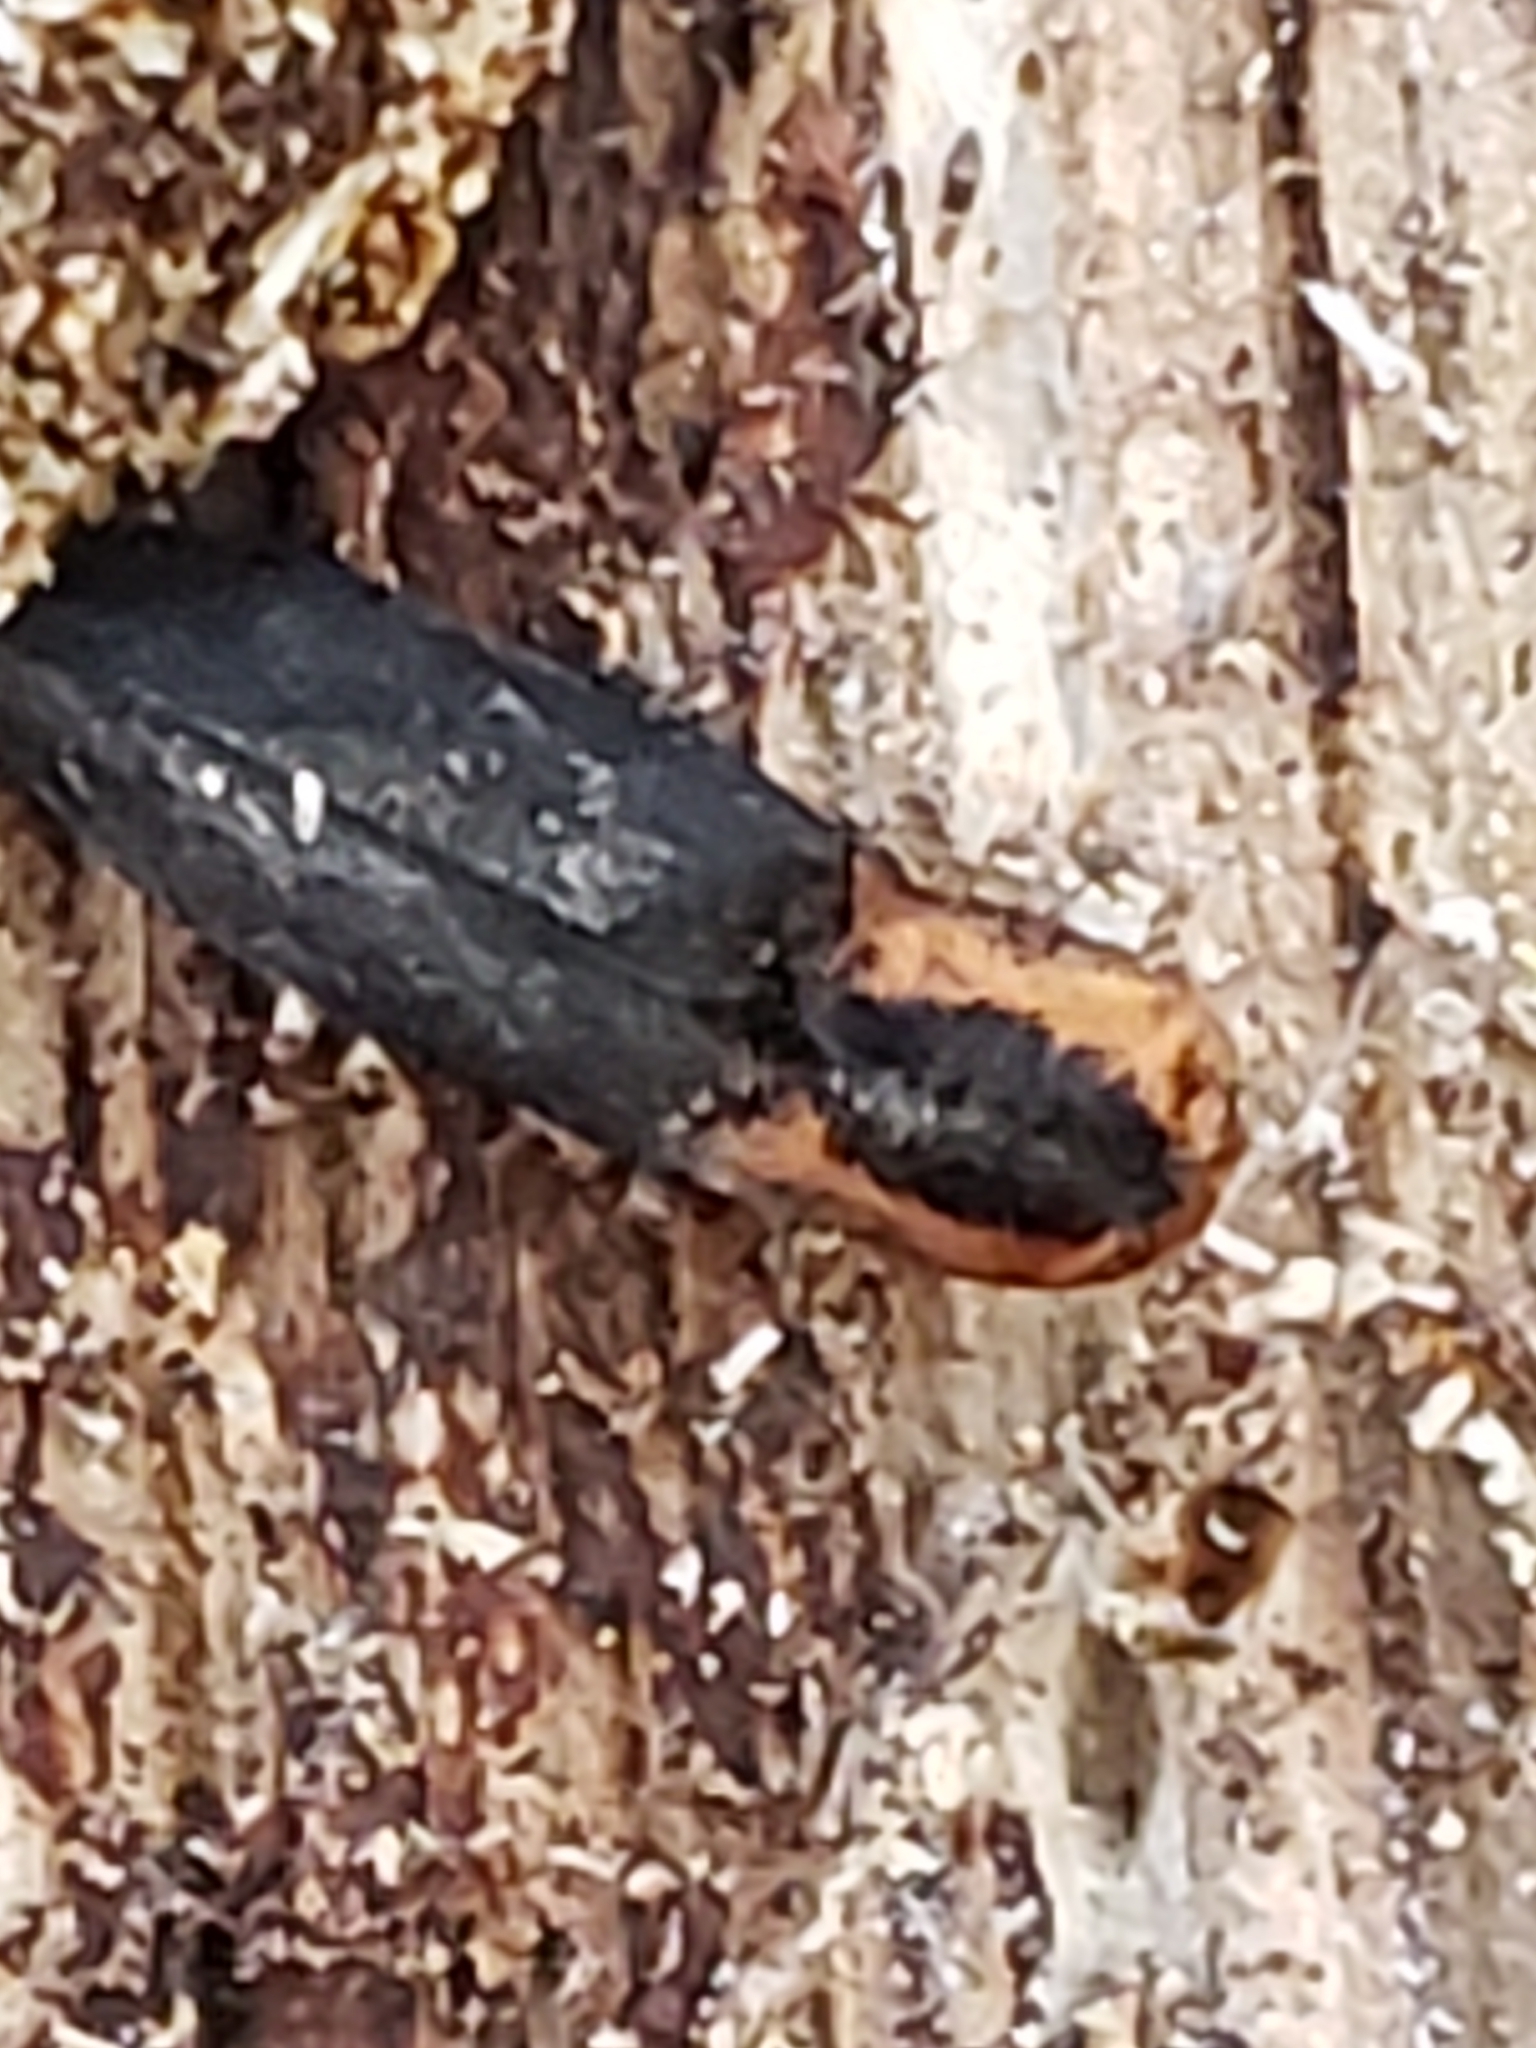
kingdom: Animalia
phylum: Arthropoda
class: Insecta
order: Coleoptera
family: Elateridae
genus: Lacon
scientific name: Lacon discoideus
